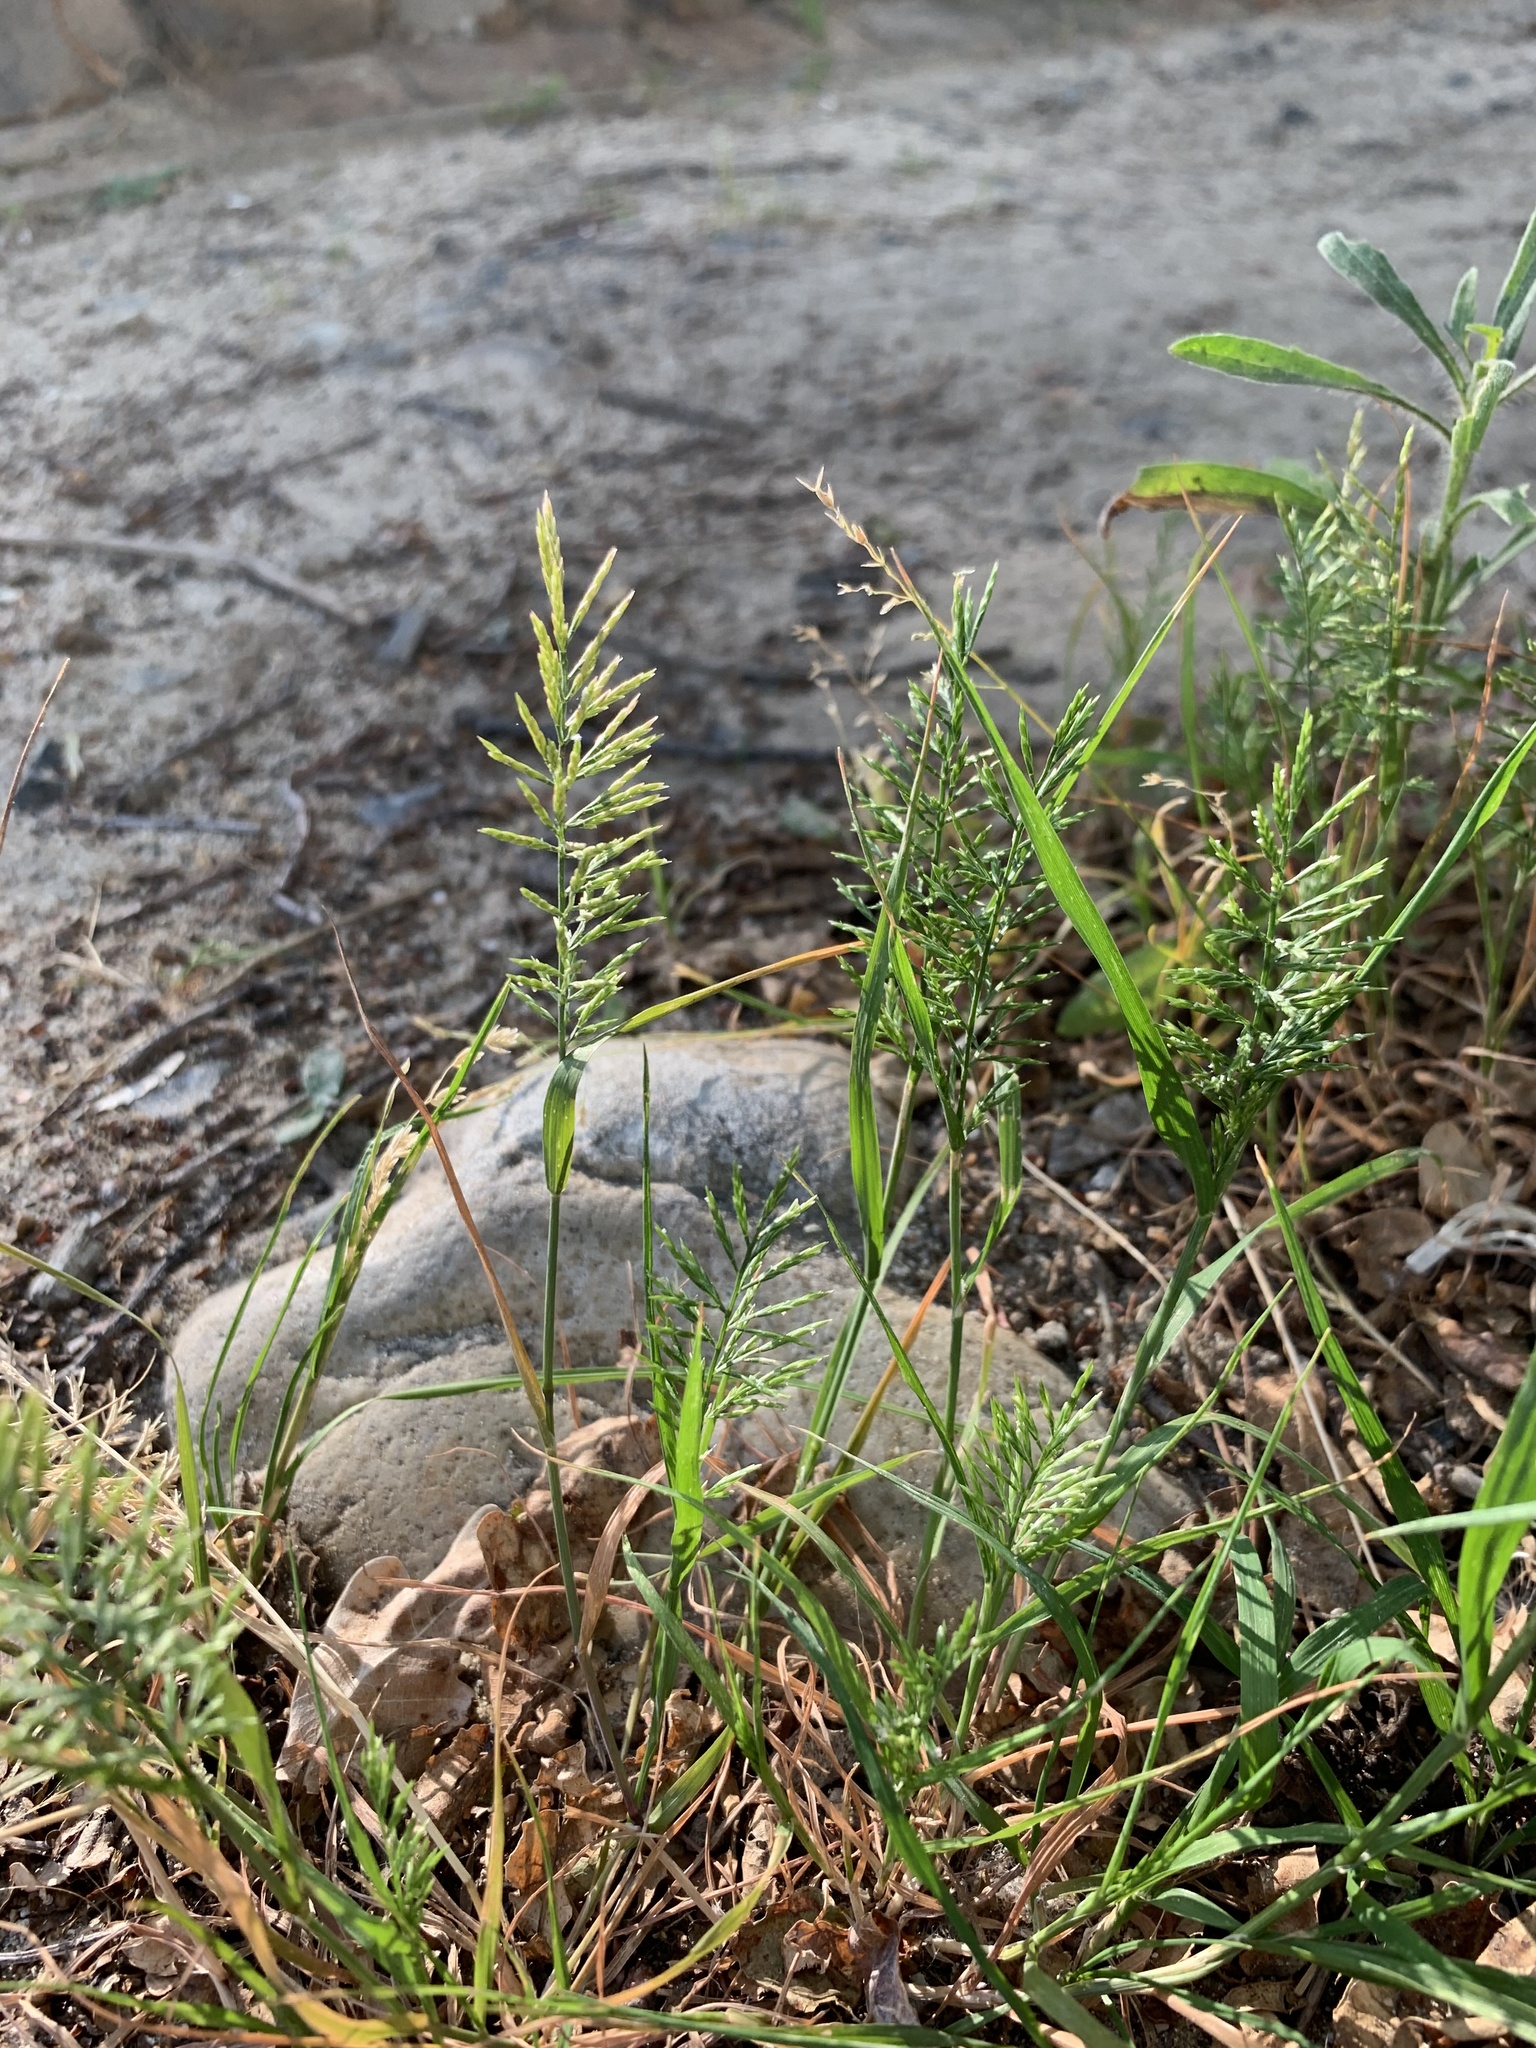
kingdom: Plantae
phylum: Tracheophyta
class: Liliopsida
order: Poales
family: Poaceae
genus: Catapodium
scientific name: Catapodium rigidum
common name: Fern-grass
